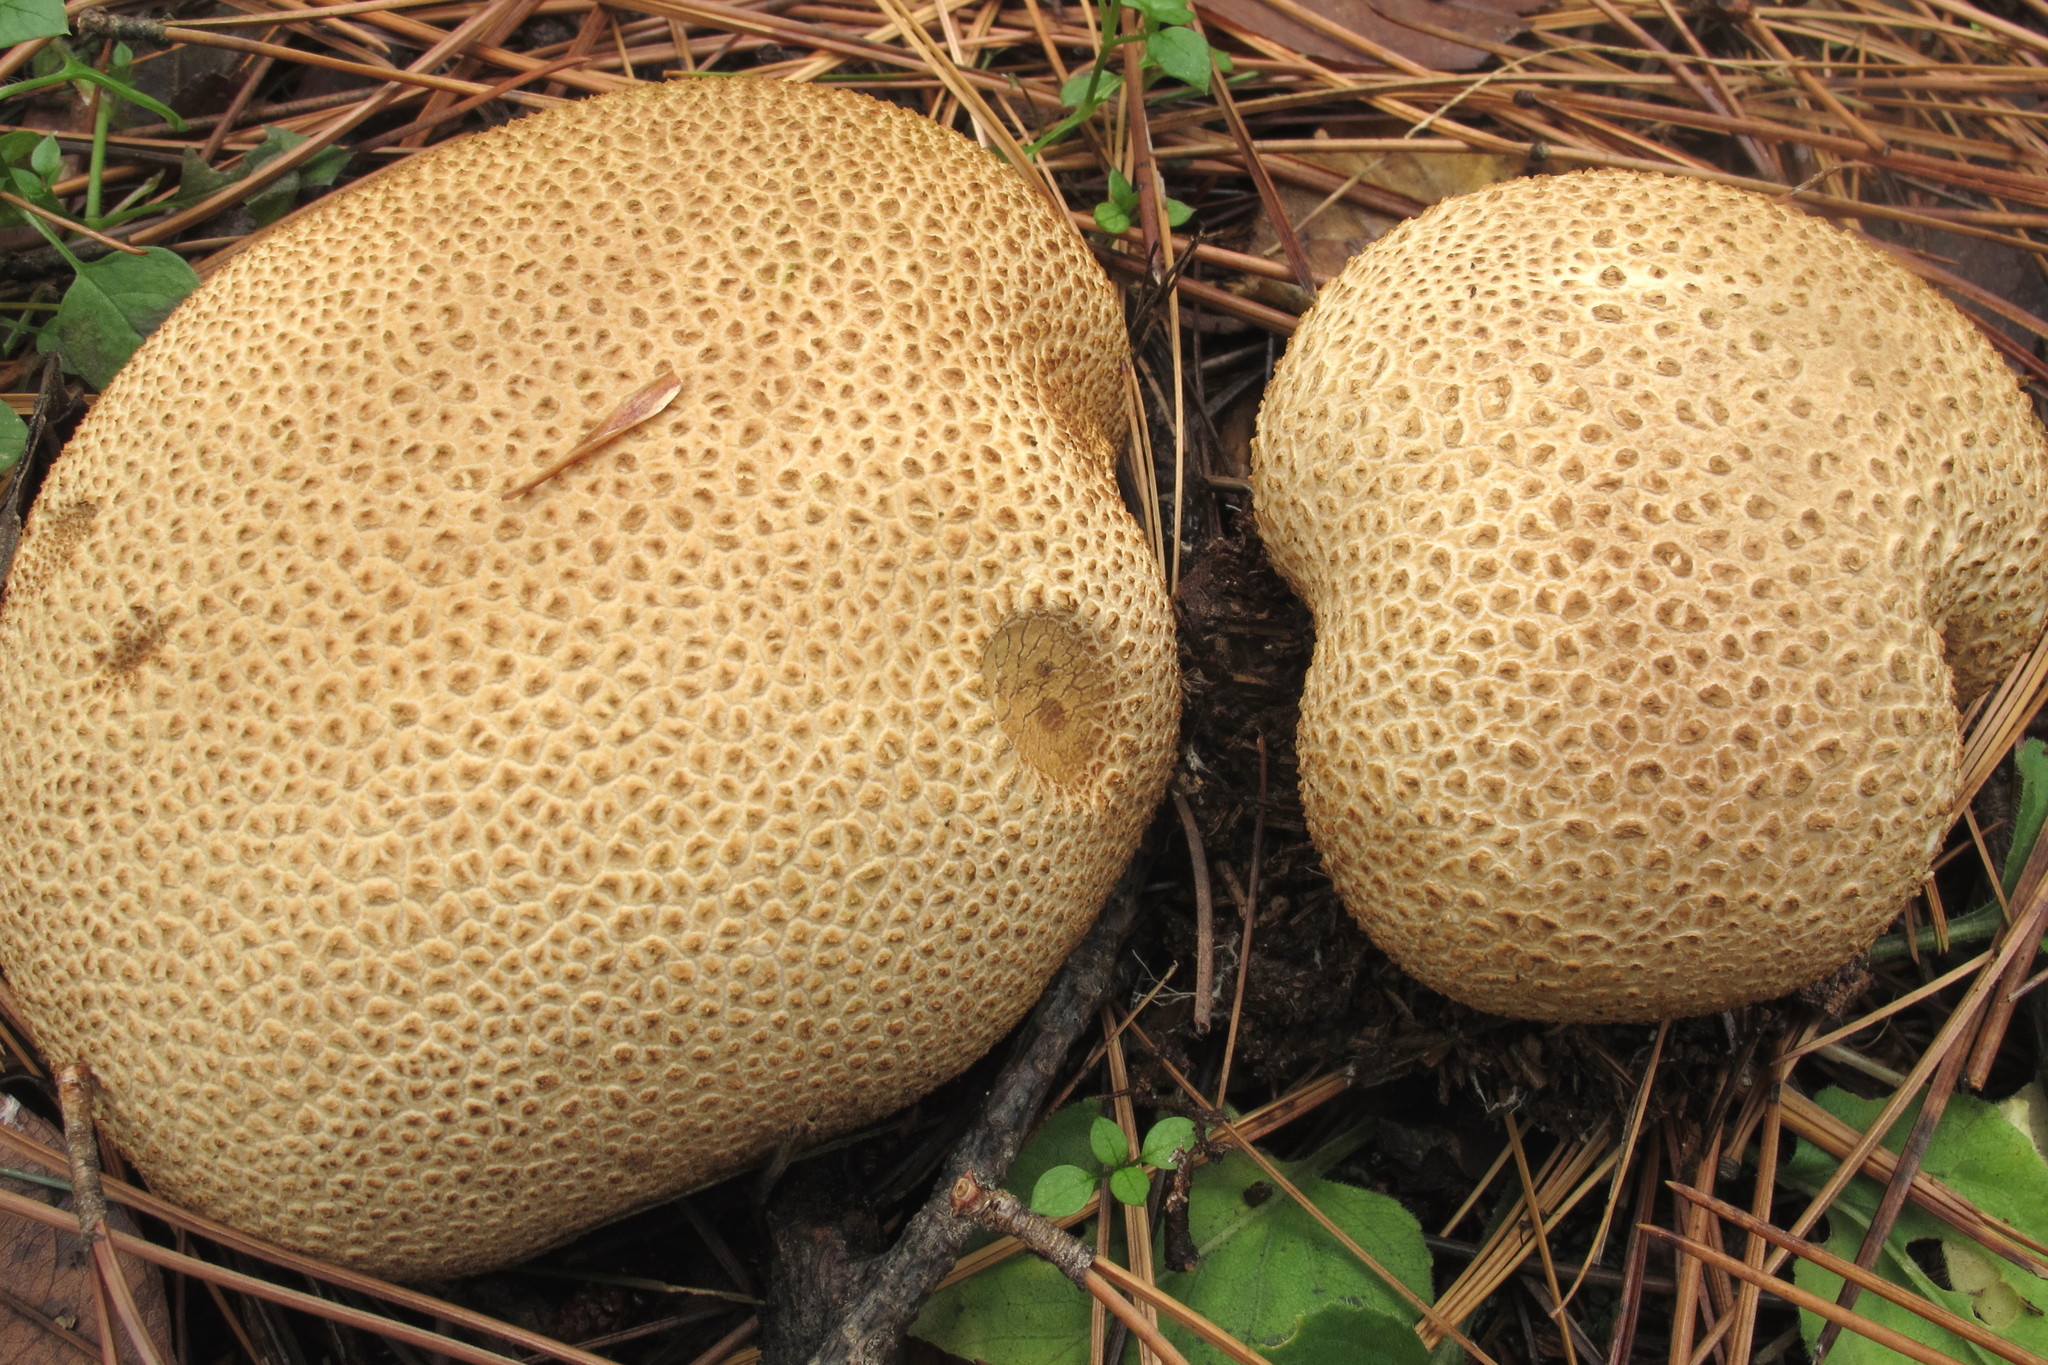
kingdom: Fungi
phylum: Basidiomycota
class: Agaricomycetes
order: Boletales
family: Sclerodermataceae
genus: Scleroderma
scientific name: Scleroderma citrinum
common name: Common earthball
